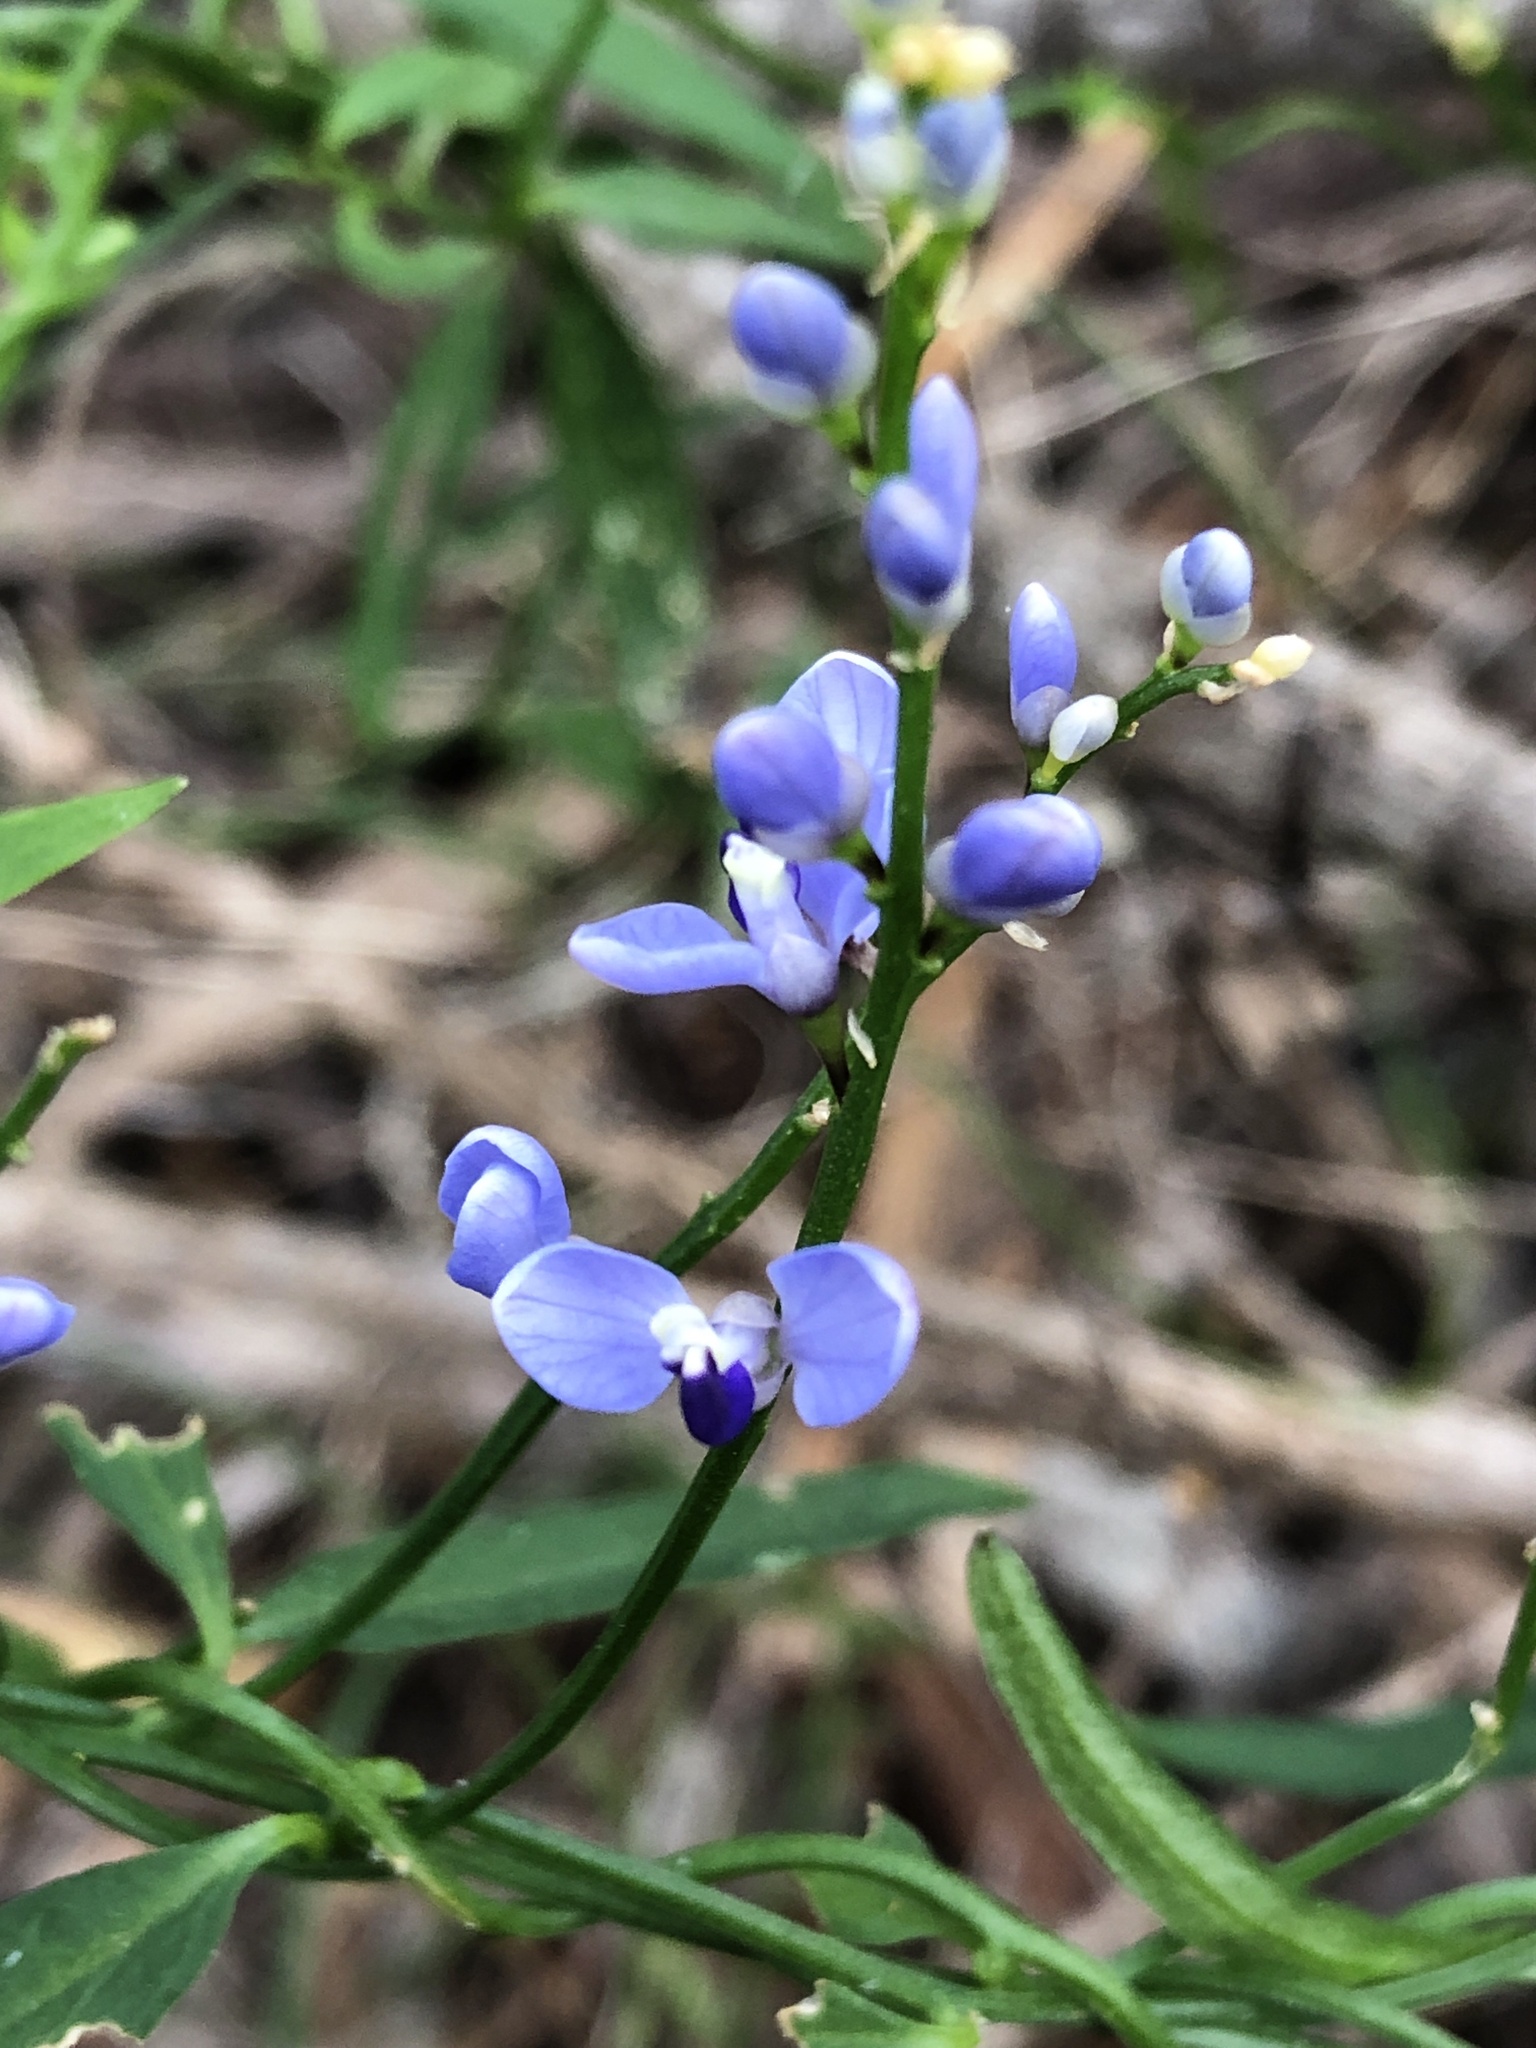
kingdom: Plantae
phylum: Tracheophyta
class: Magnoliopsida
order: Fabales
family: Polygalaceae
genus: Comesperma
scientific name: Comesperma volubile
